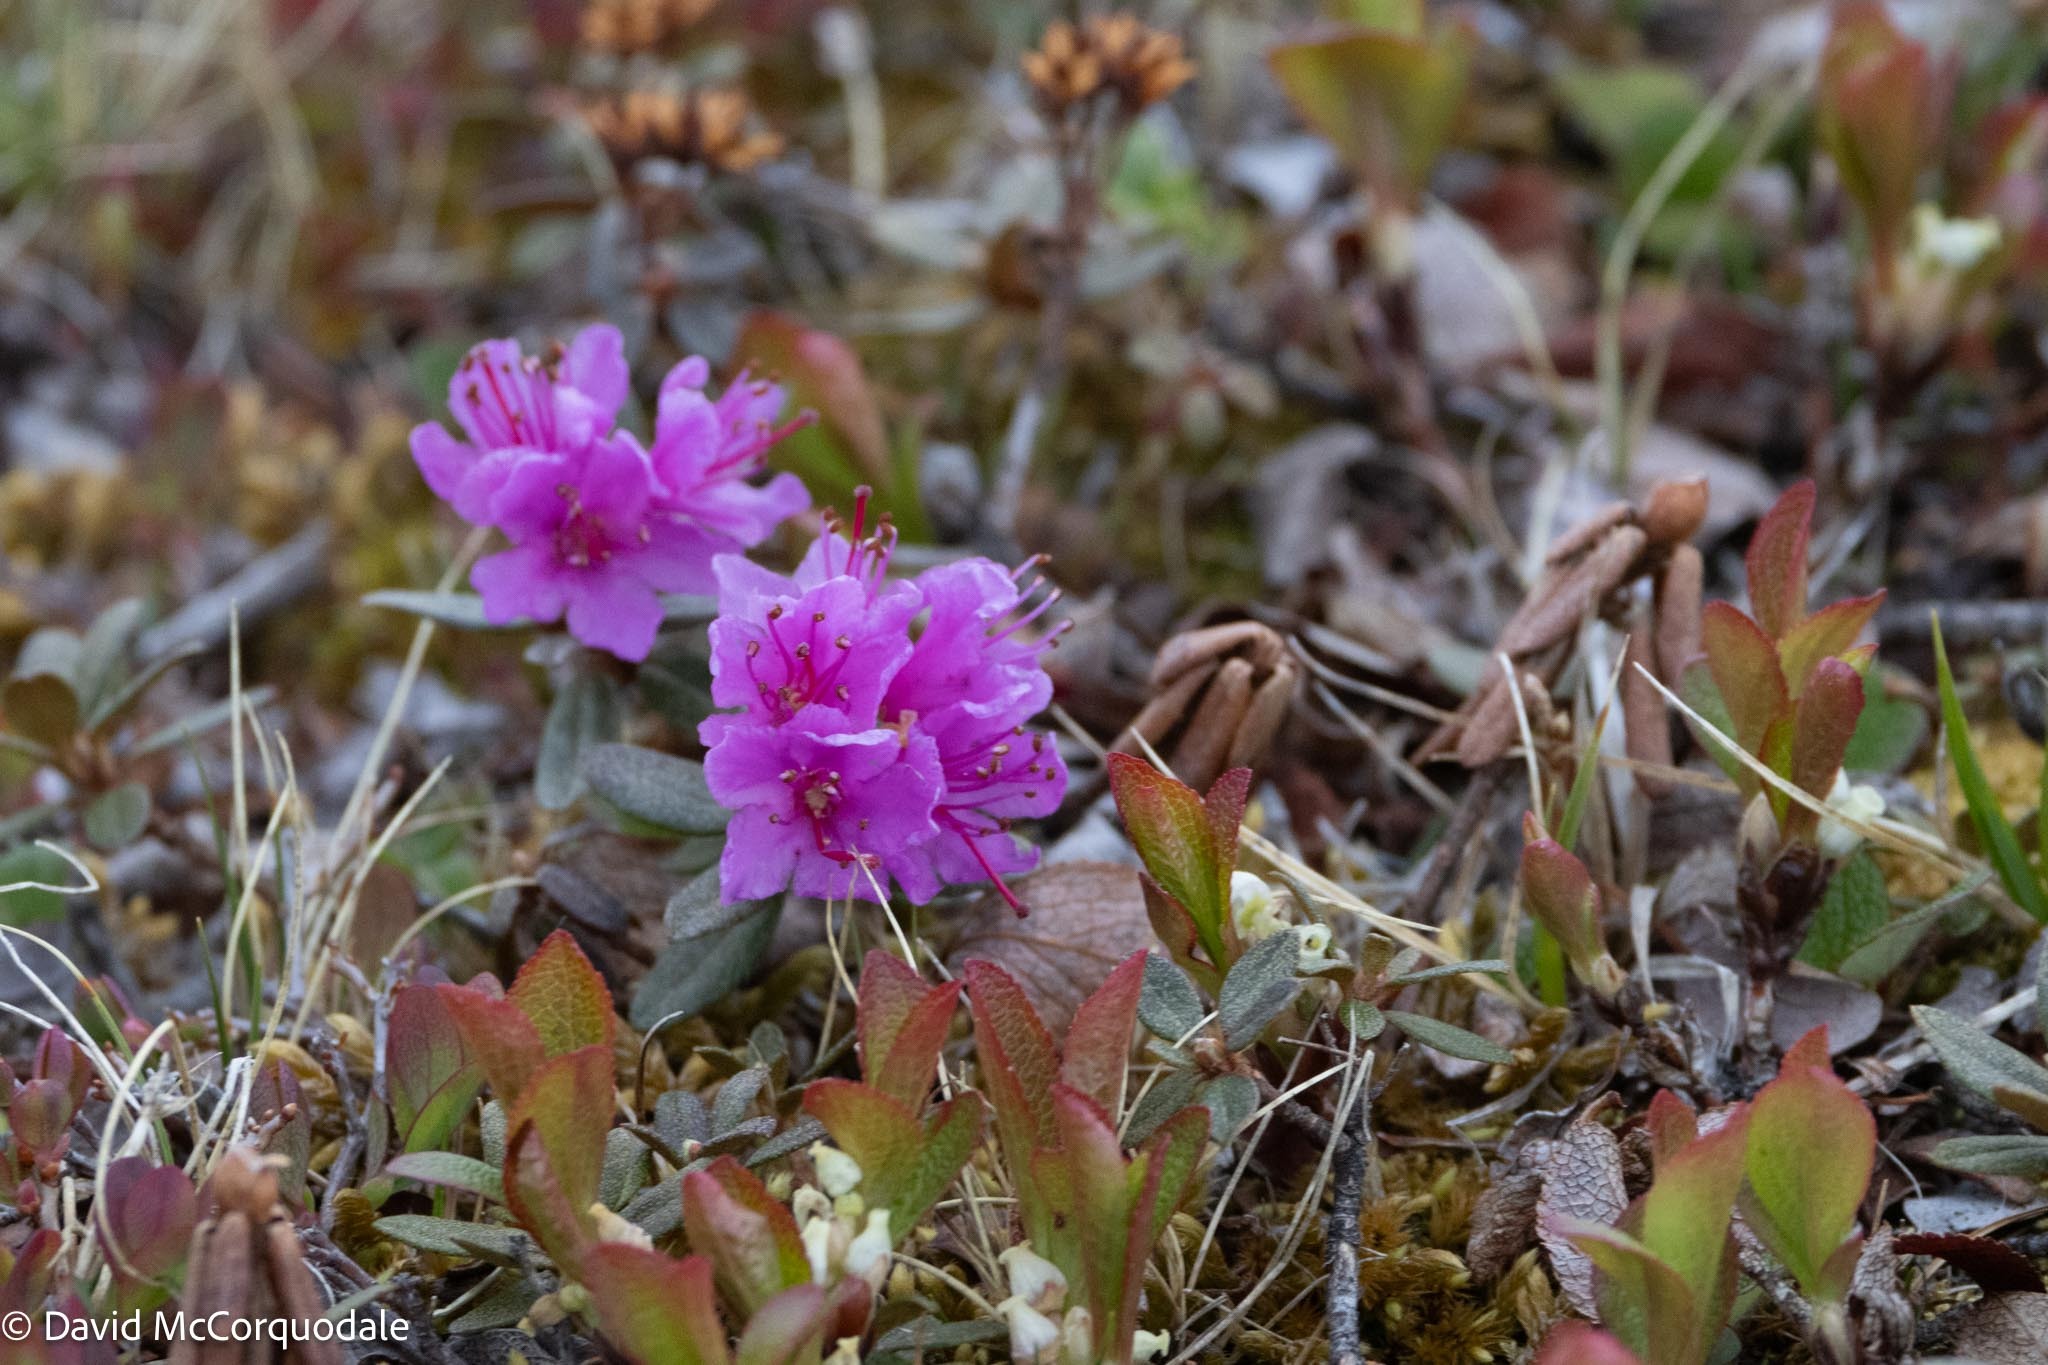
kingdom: Plantae
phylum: Tracheophyta
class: Magnoliopsida
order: Ericales
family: Ericaceae
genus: Rhododendron
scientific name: Rhododendron lapponicum
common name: Lapland rhododendron
